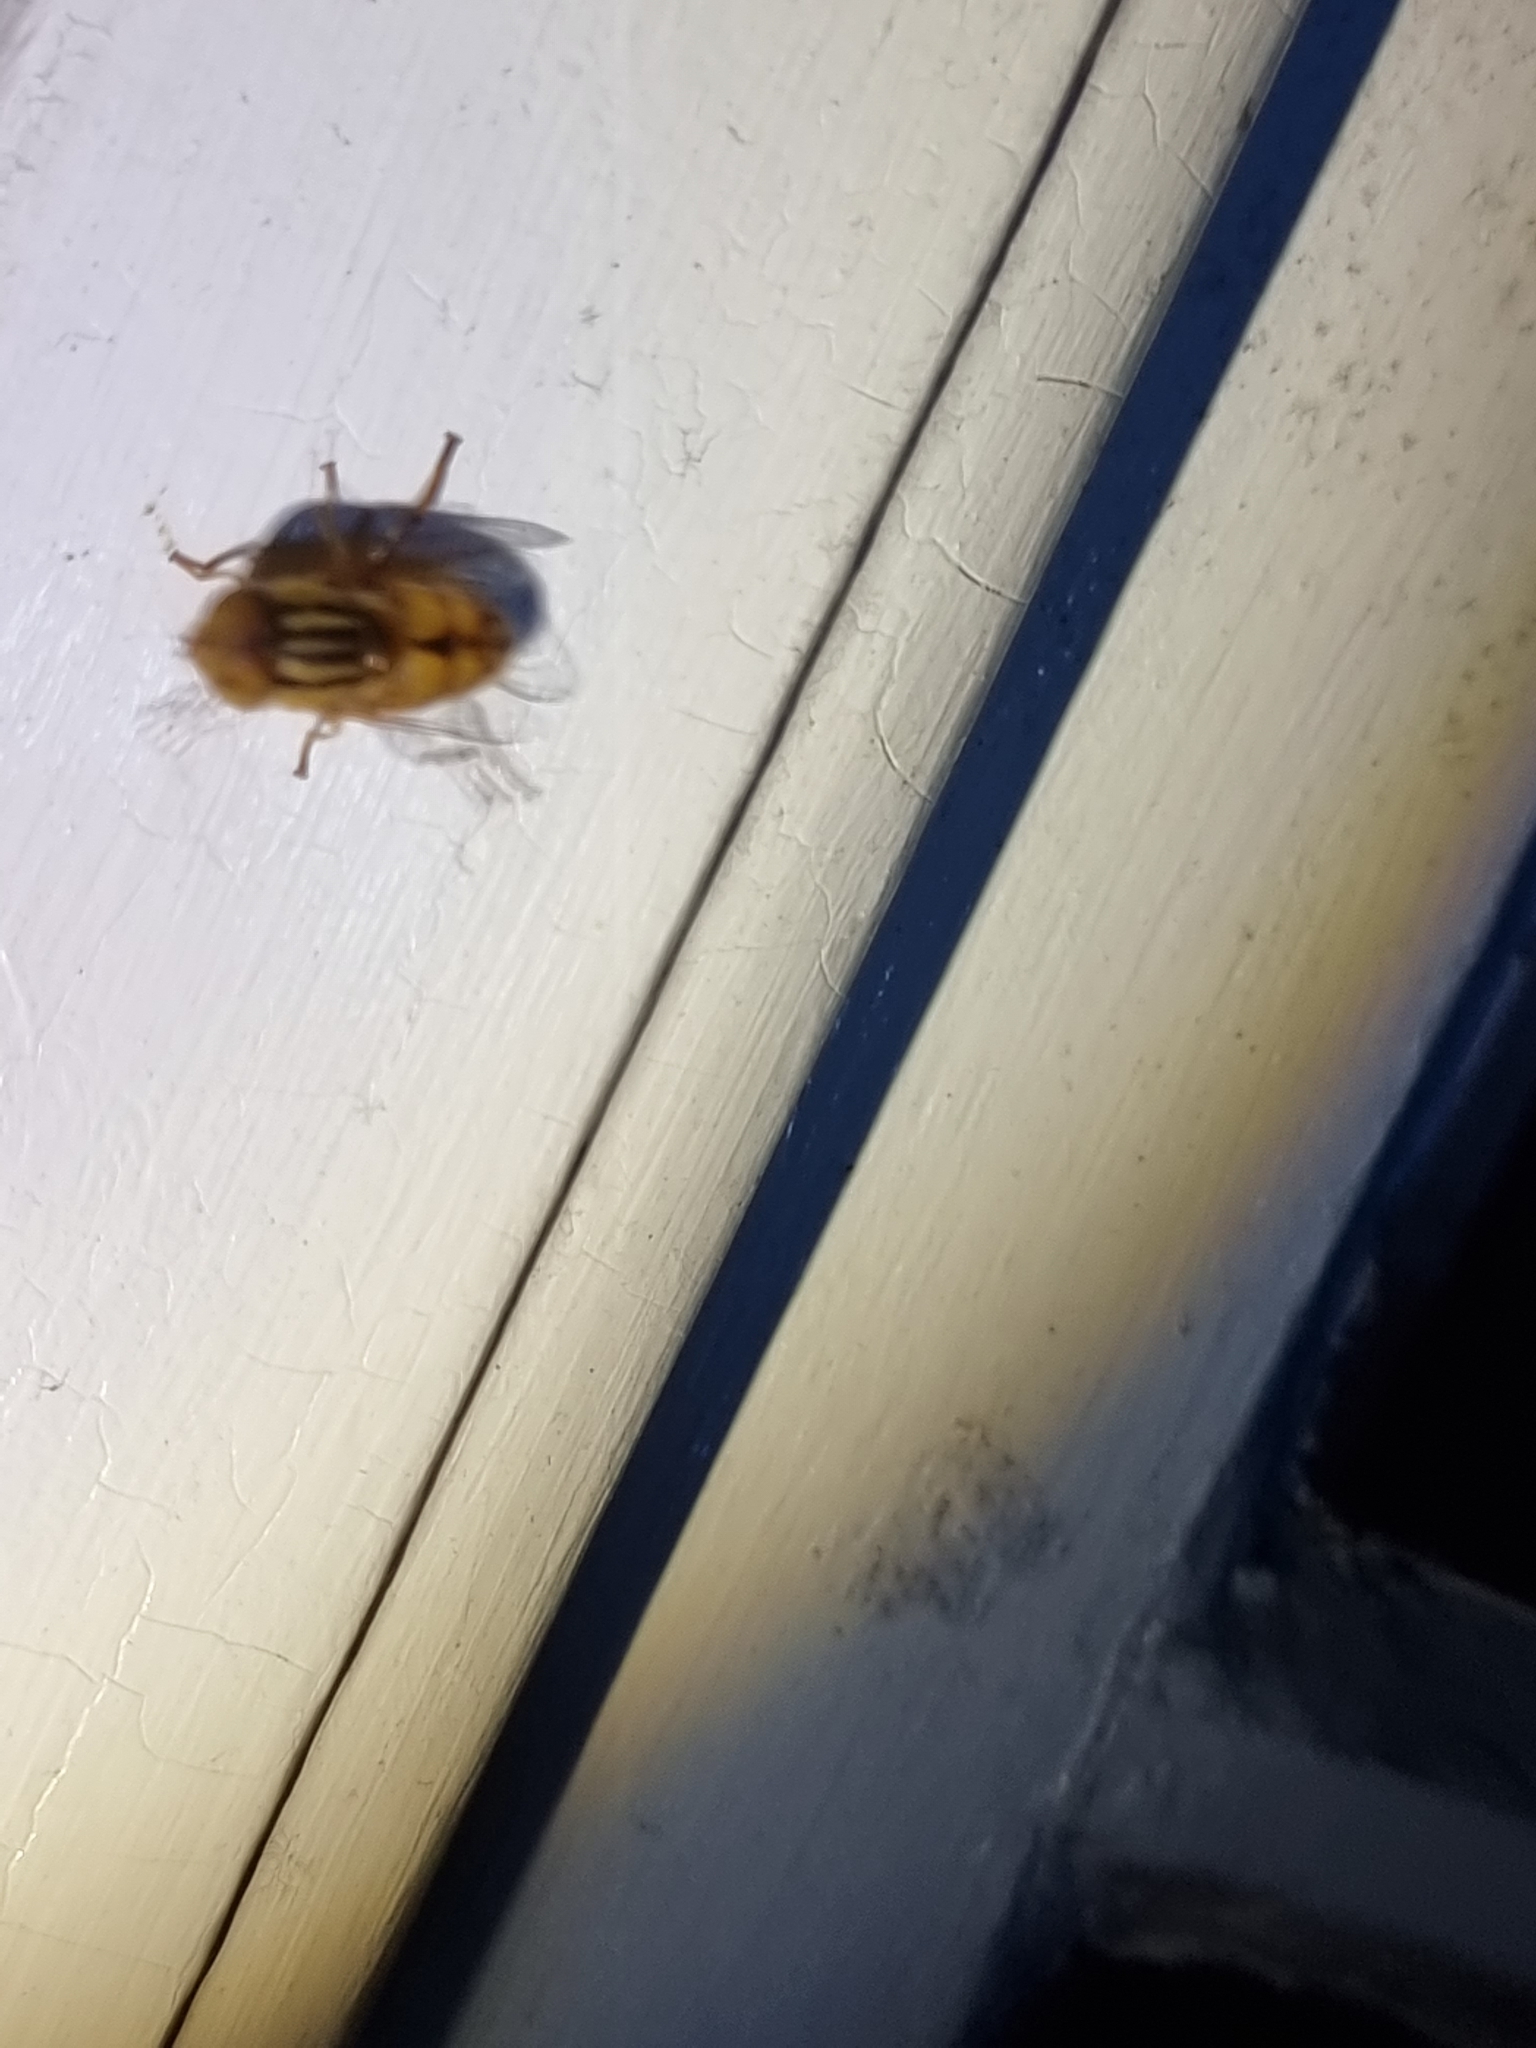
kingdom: Animalia
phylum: Arthropoda
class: Insecta
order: Diptera
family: Syrphidae
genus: Eristalinus
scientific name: Eristalinus punctulatus
